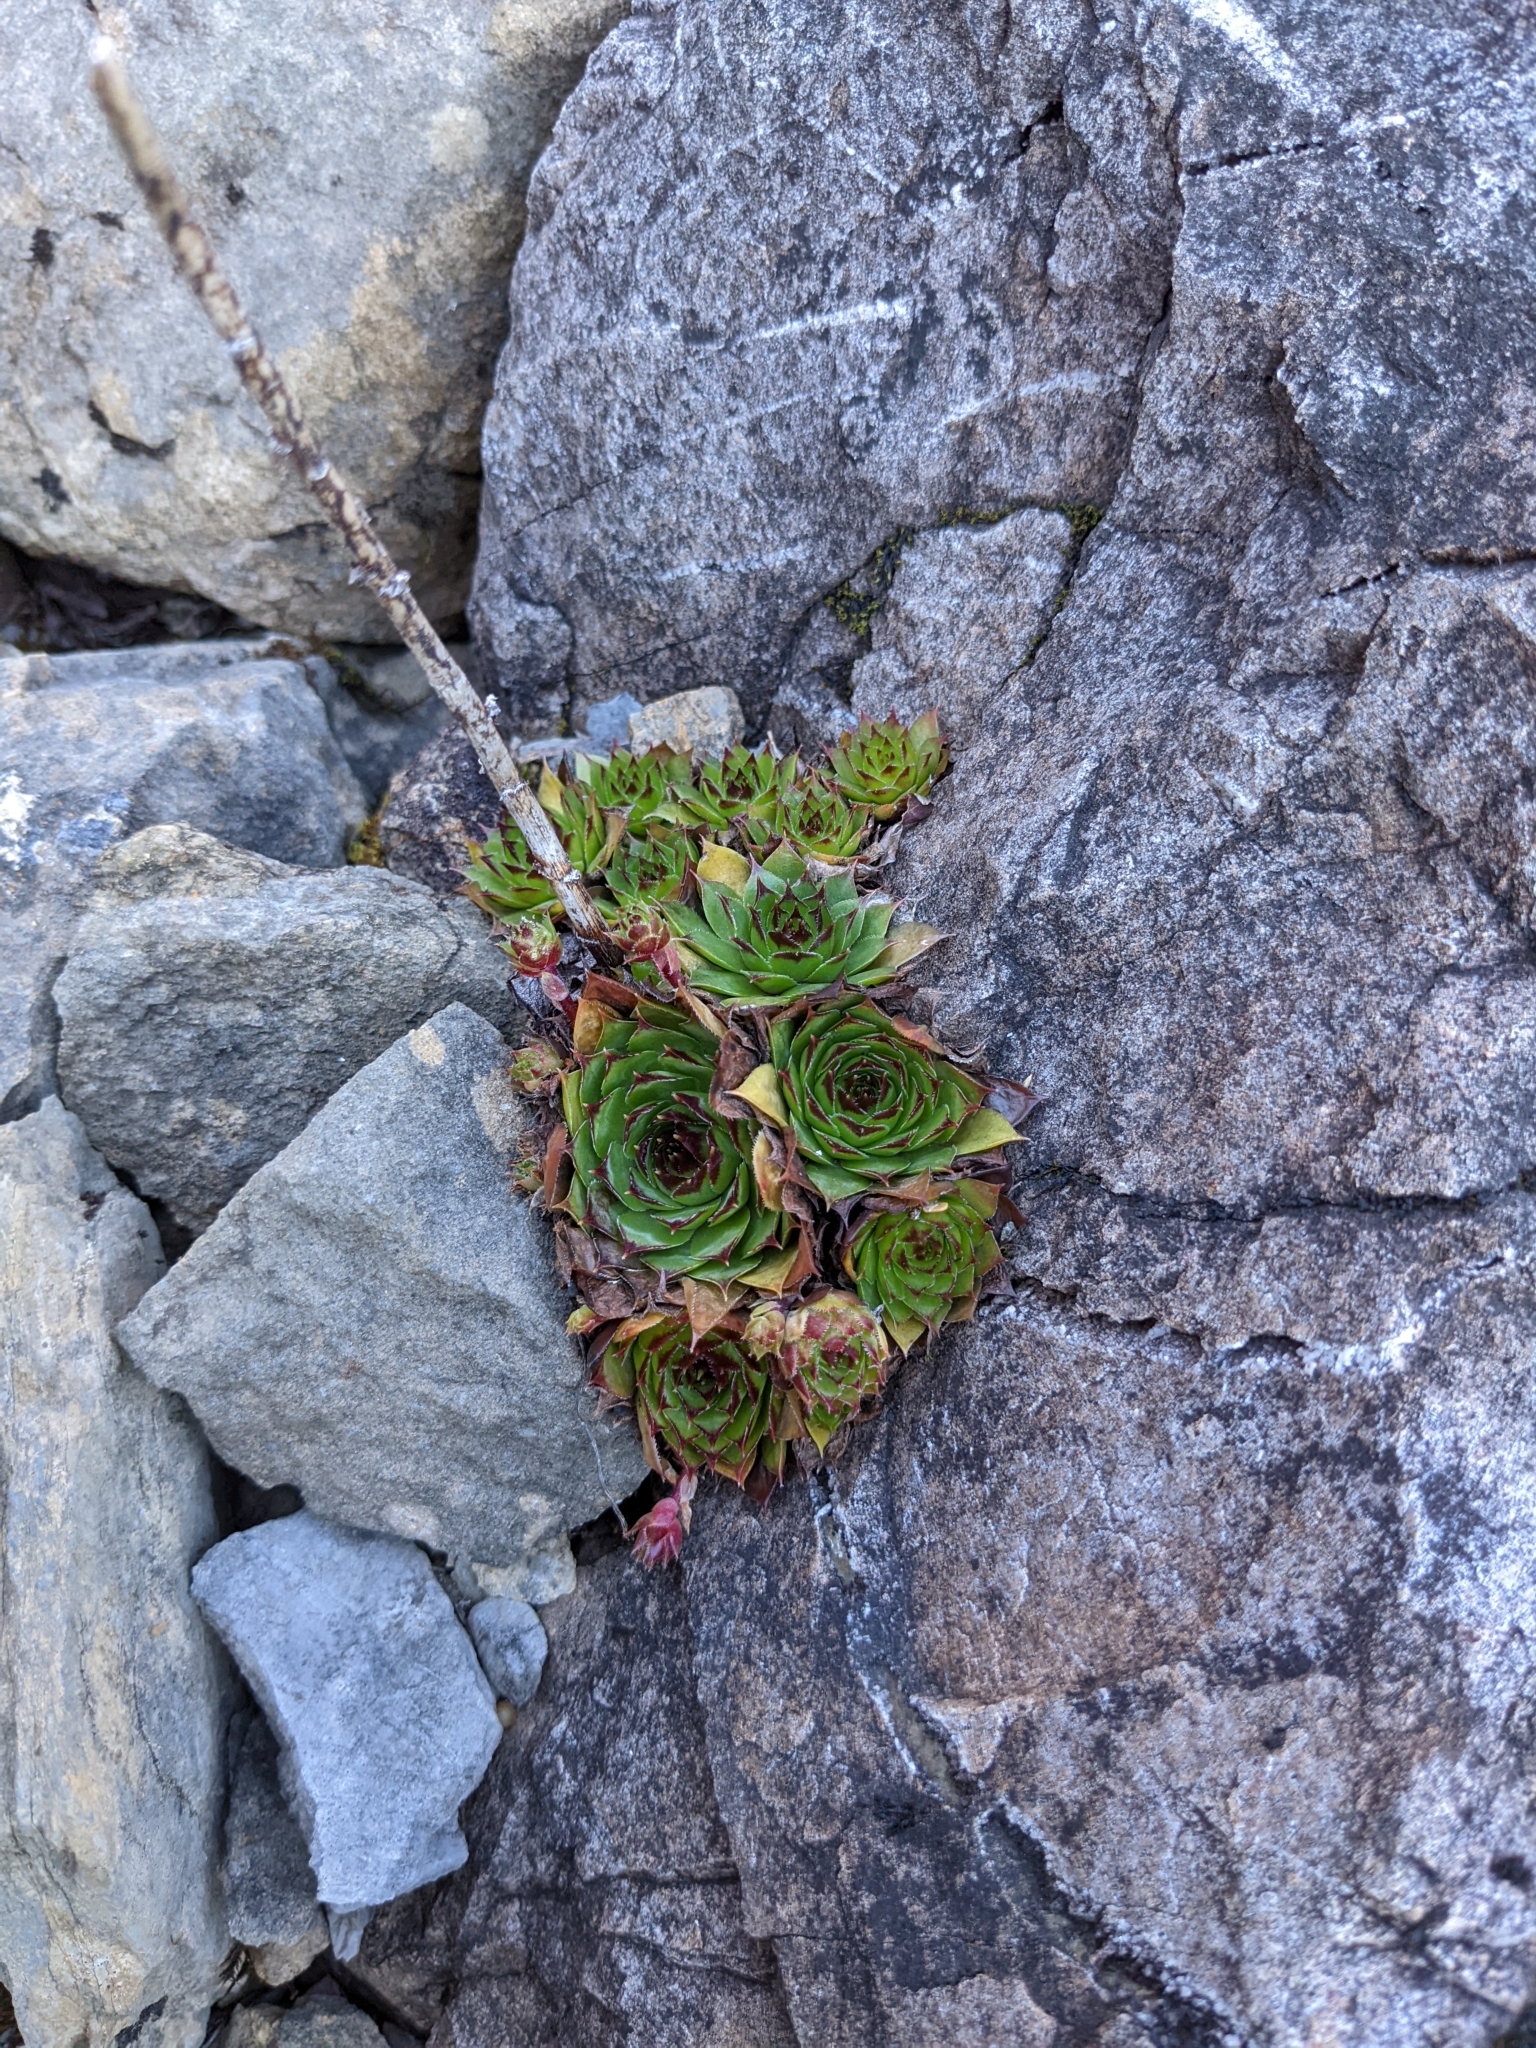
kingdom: Plantae
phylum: Tracheophyta
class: Magnoliopsida
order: Saxifragales
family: Crassulaceae
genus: Sempervivum
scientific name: Sempervivum tectorum
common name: House-leek
